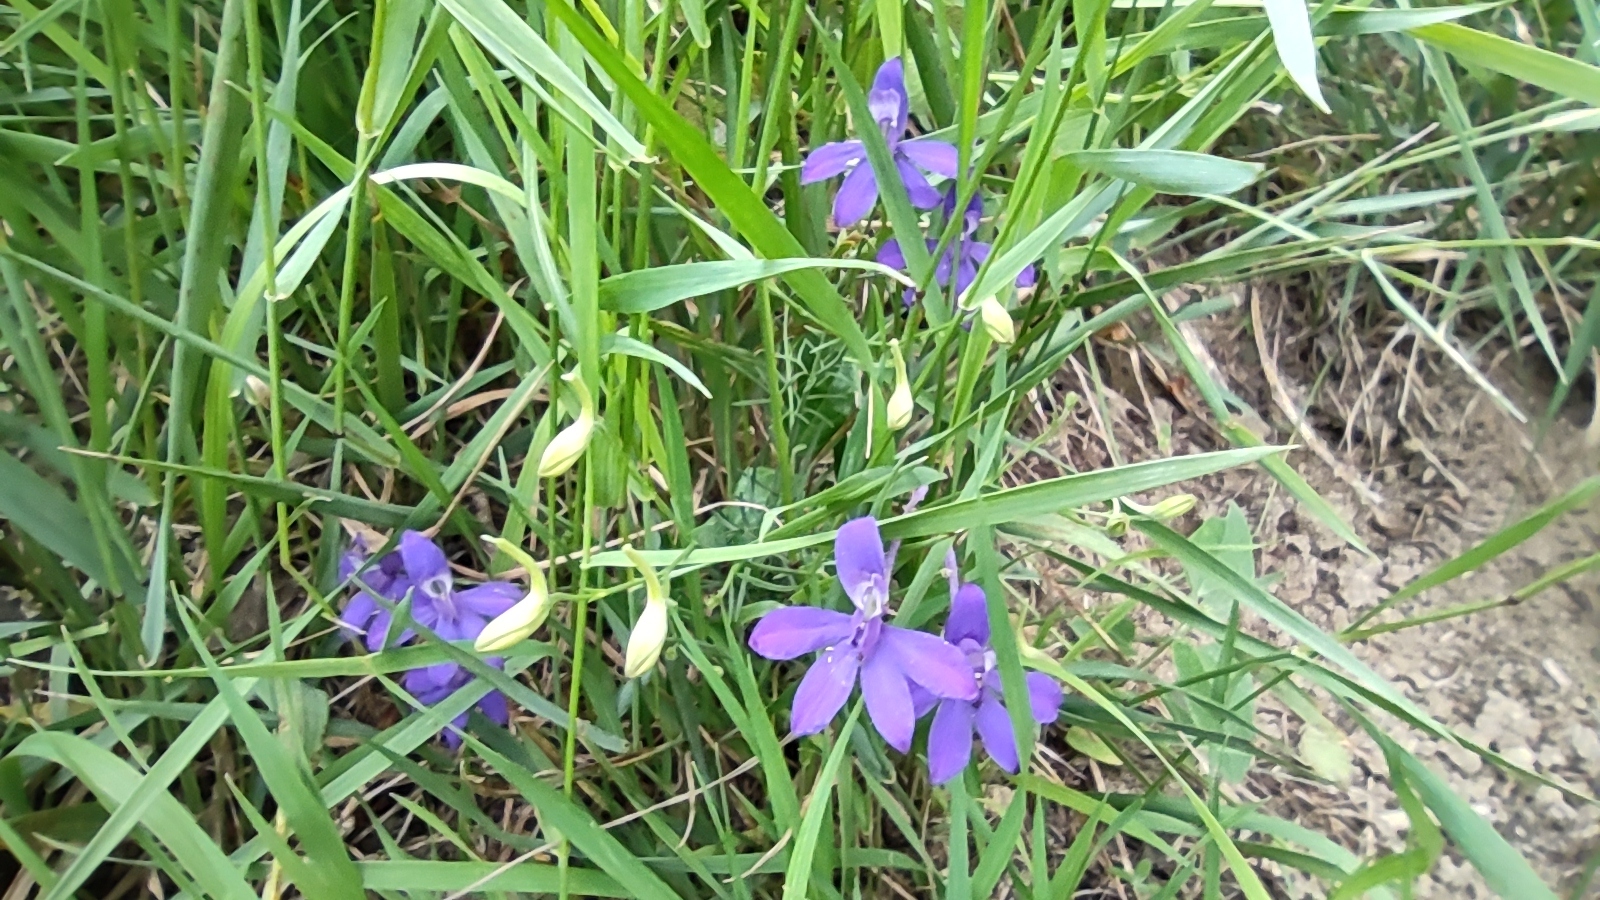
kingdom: Plantae
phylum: Tracheophyta
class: Magnoliopsida
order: Ranunculales
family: Ranunculaceae
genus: Delphinium
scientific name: Delphinium consolida
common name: Branching larkspur
